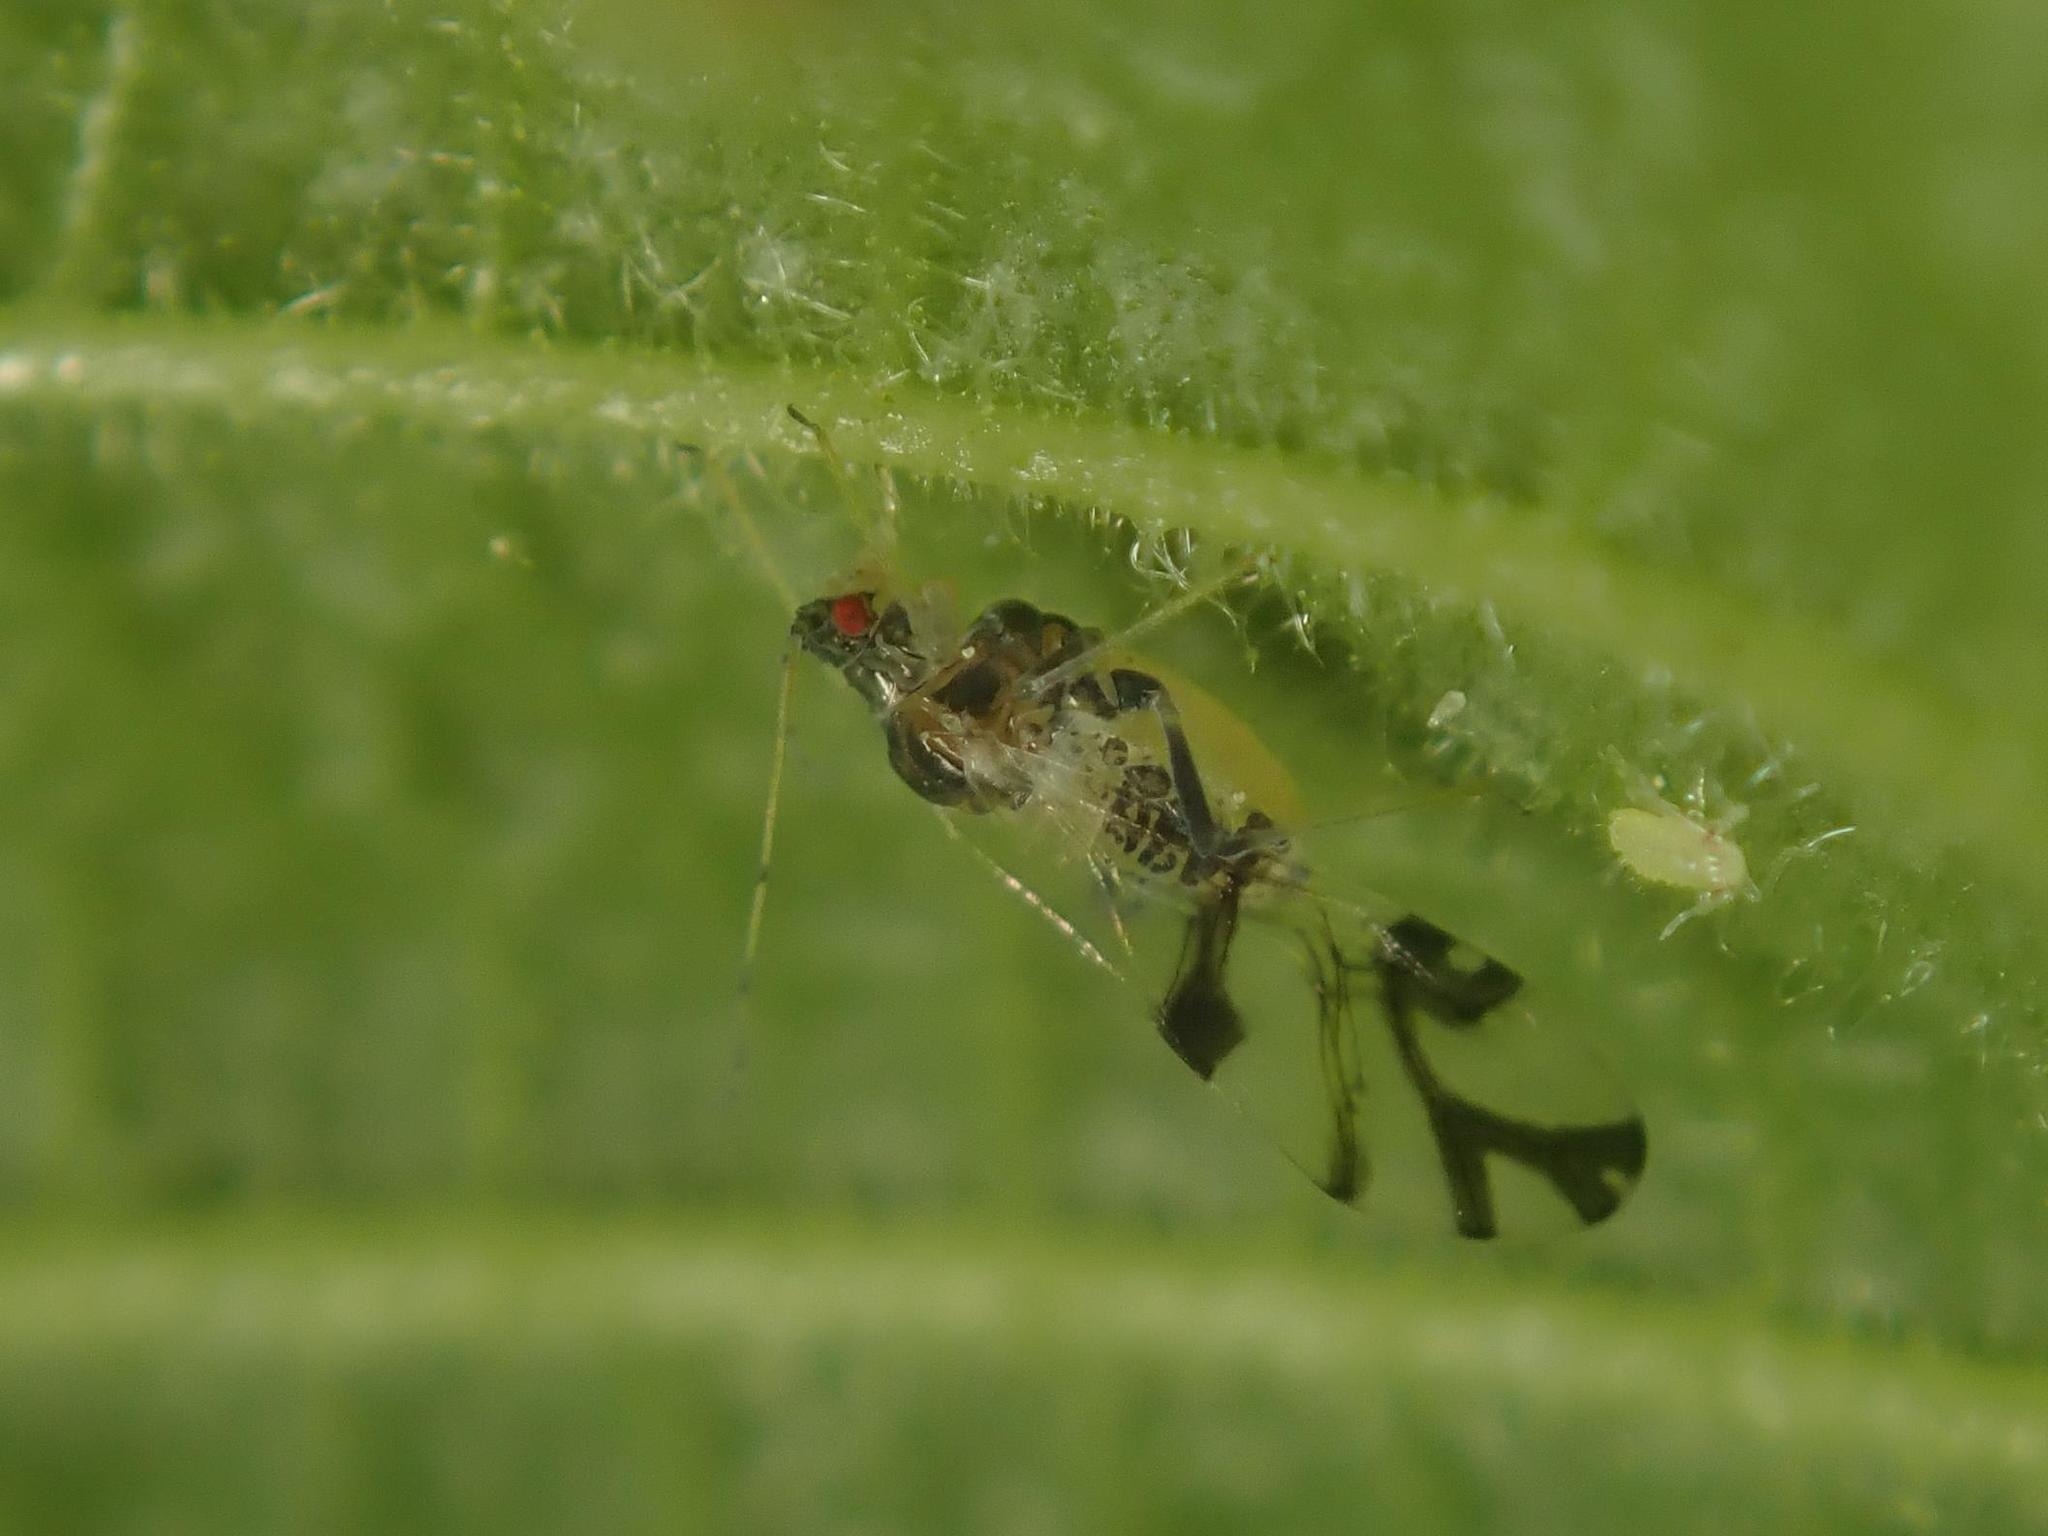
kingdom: Animalia
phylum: Arthropoda
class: Insecta
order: Hemiptera
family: Aphididae
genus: Tinocallis
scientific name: Tinocallis platani
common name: Elm aphid
